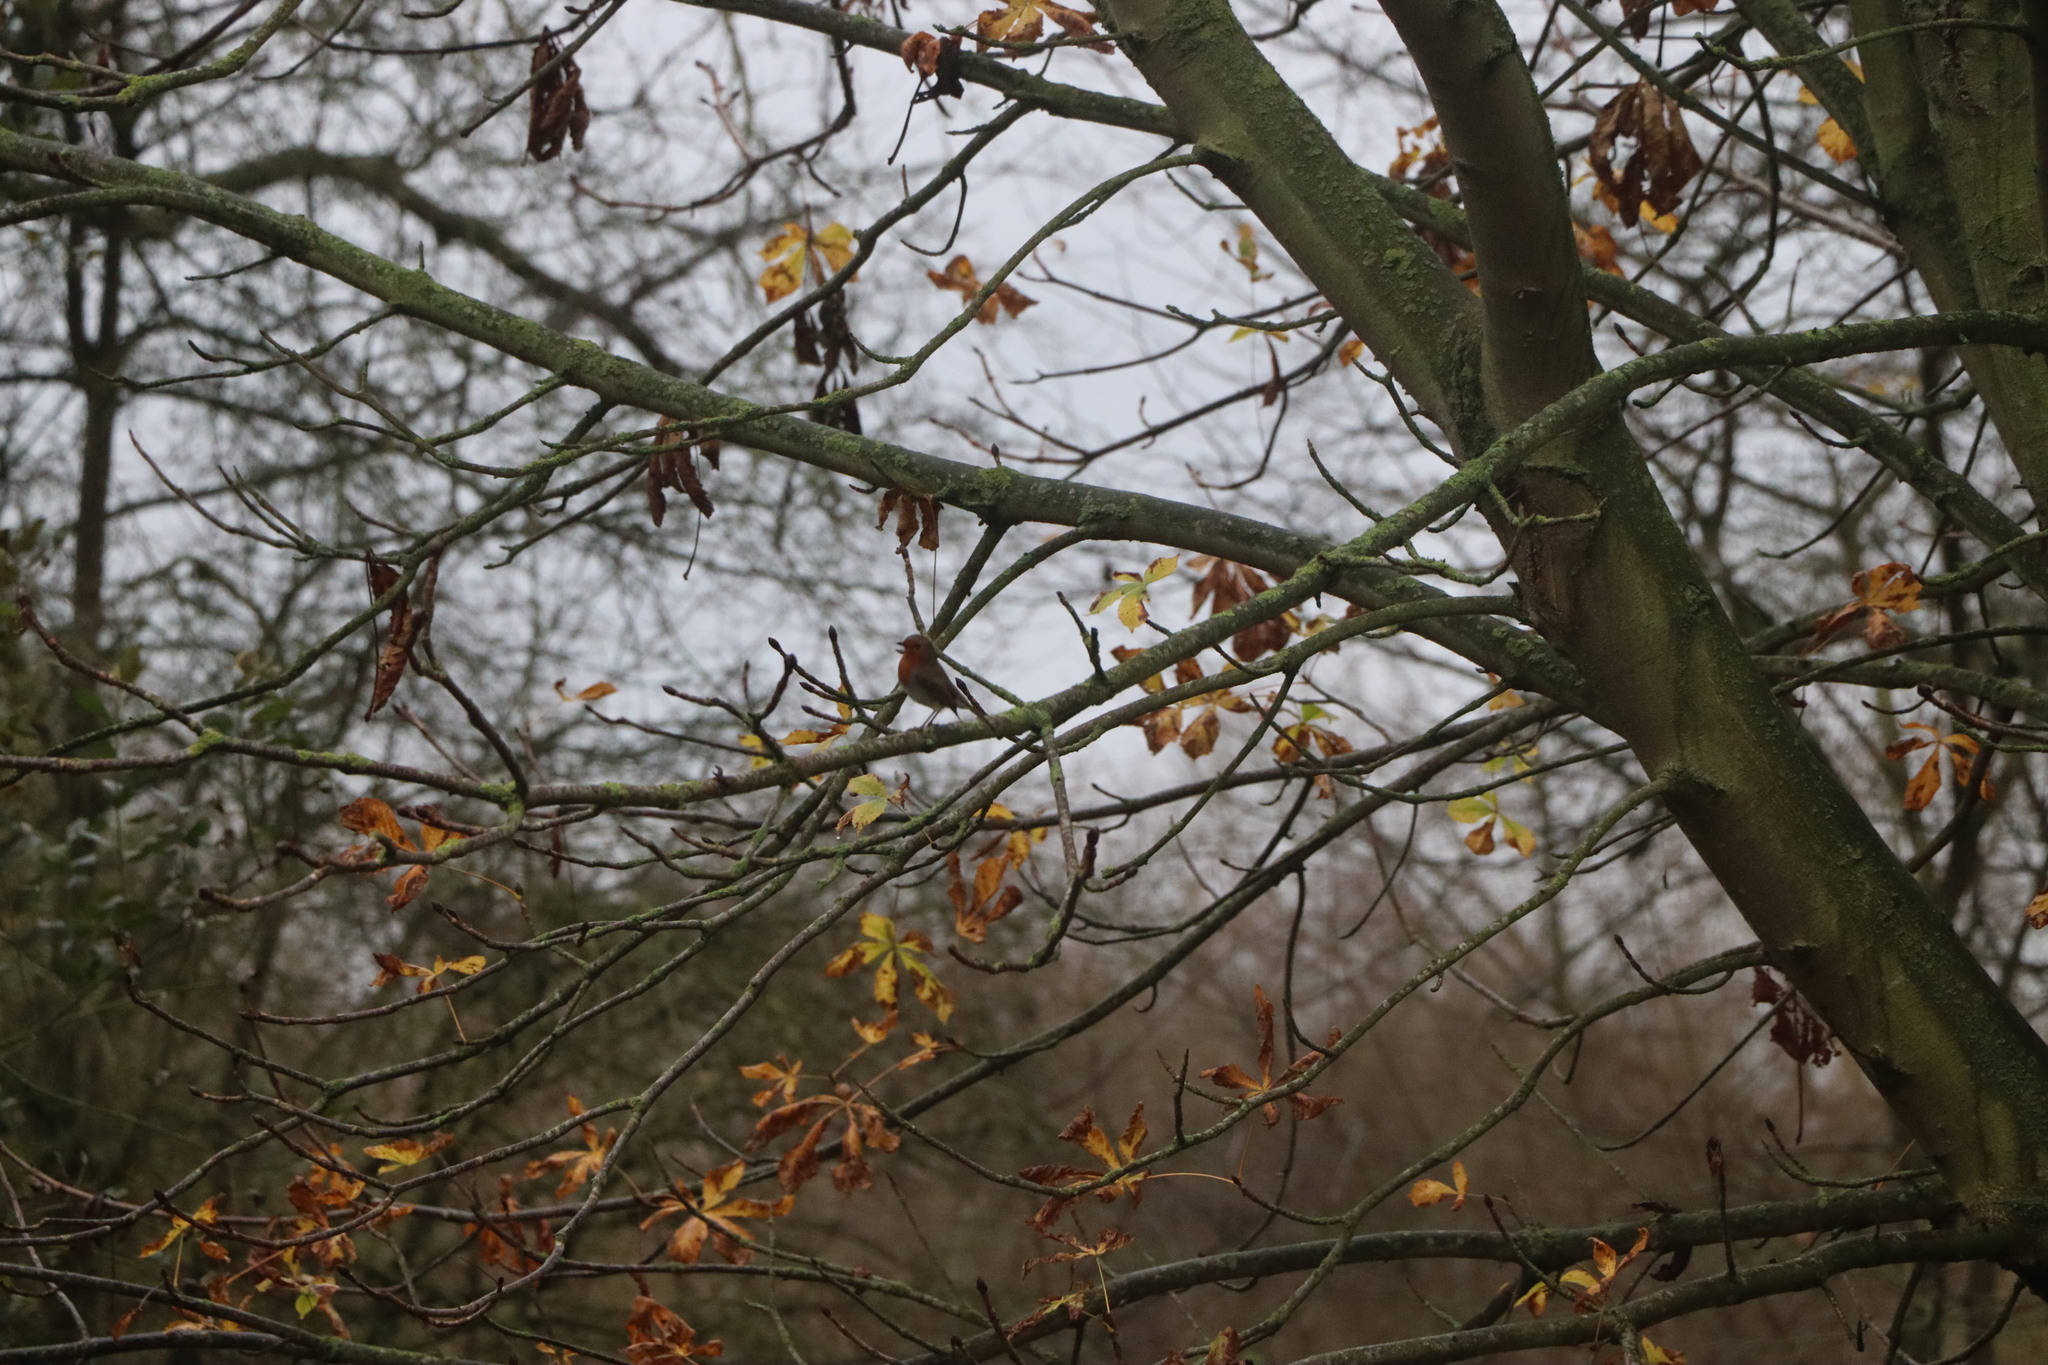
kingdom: Animalia
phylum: Chordata
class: Aves
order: Passeriformes
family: Muscicapidae
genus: Erithacus
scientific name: Erithacus rubecula
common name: European robin
